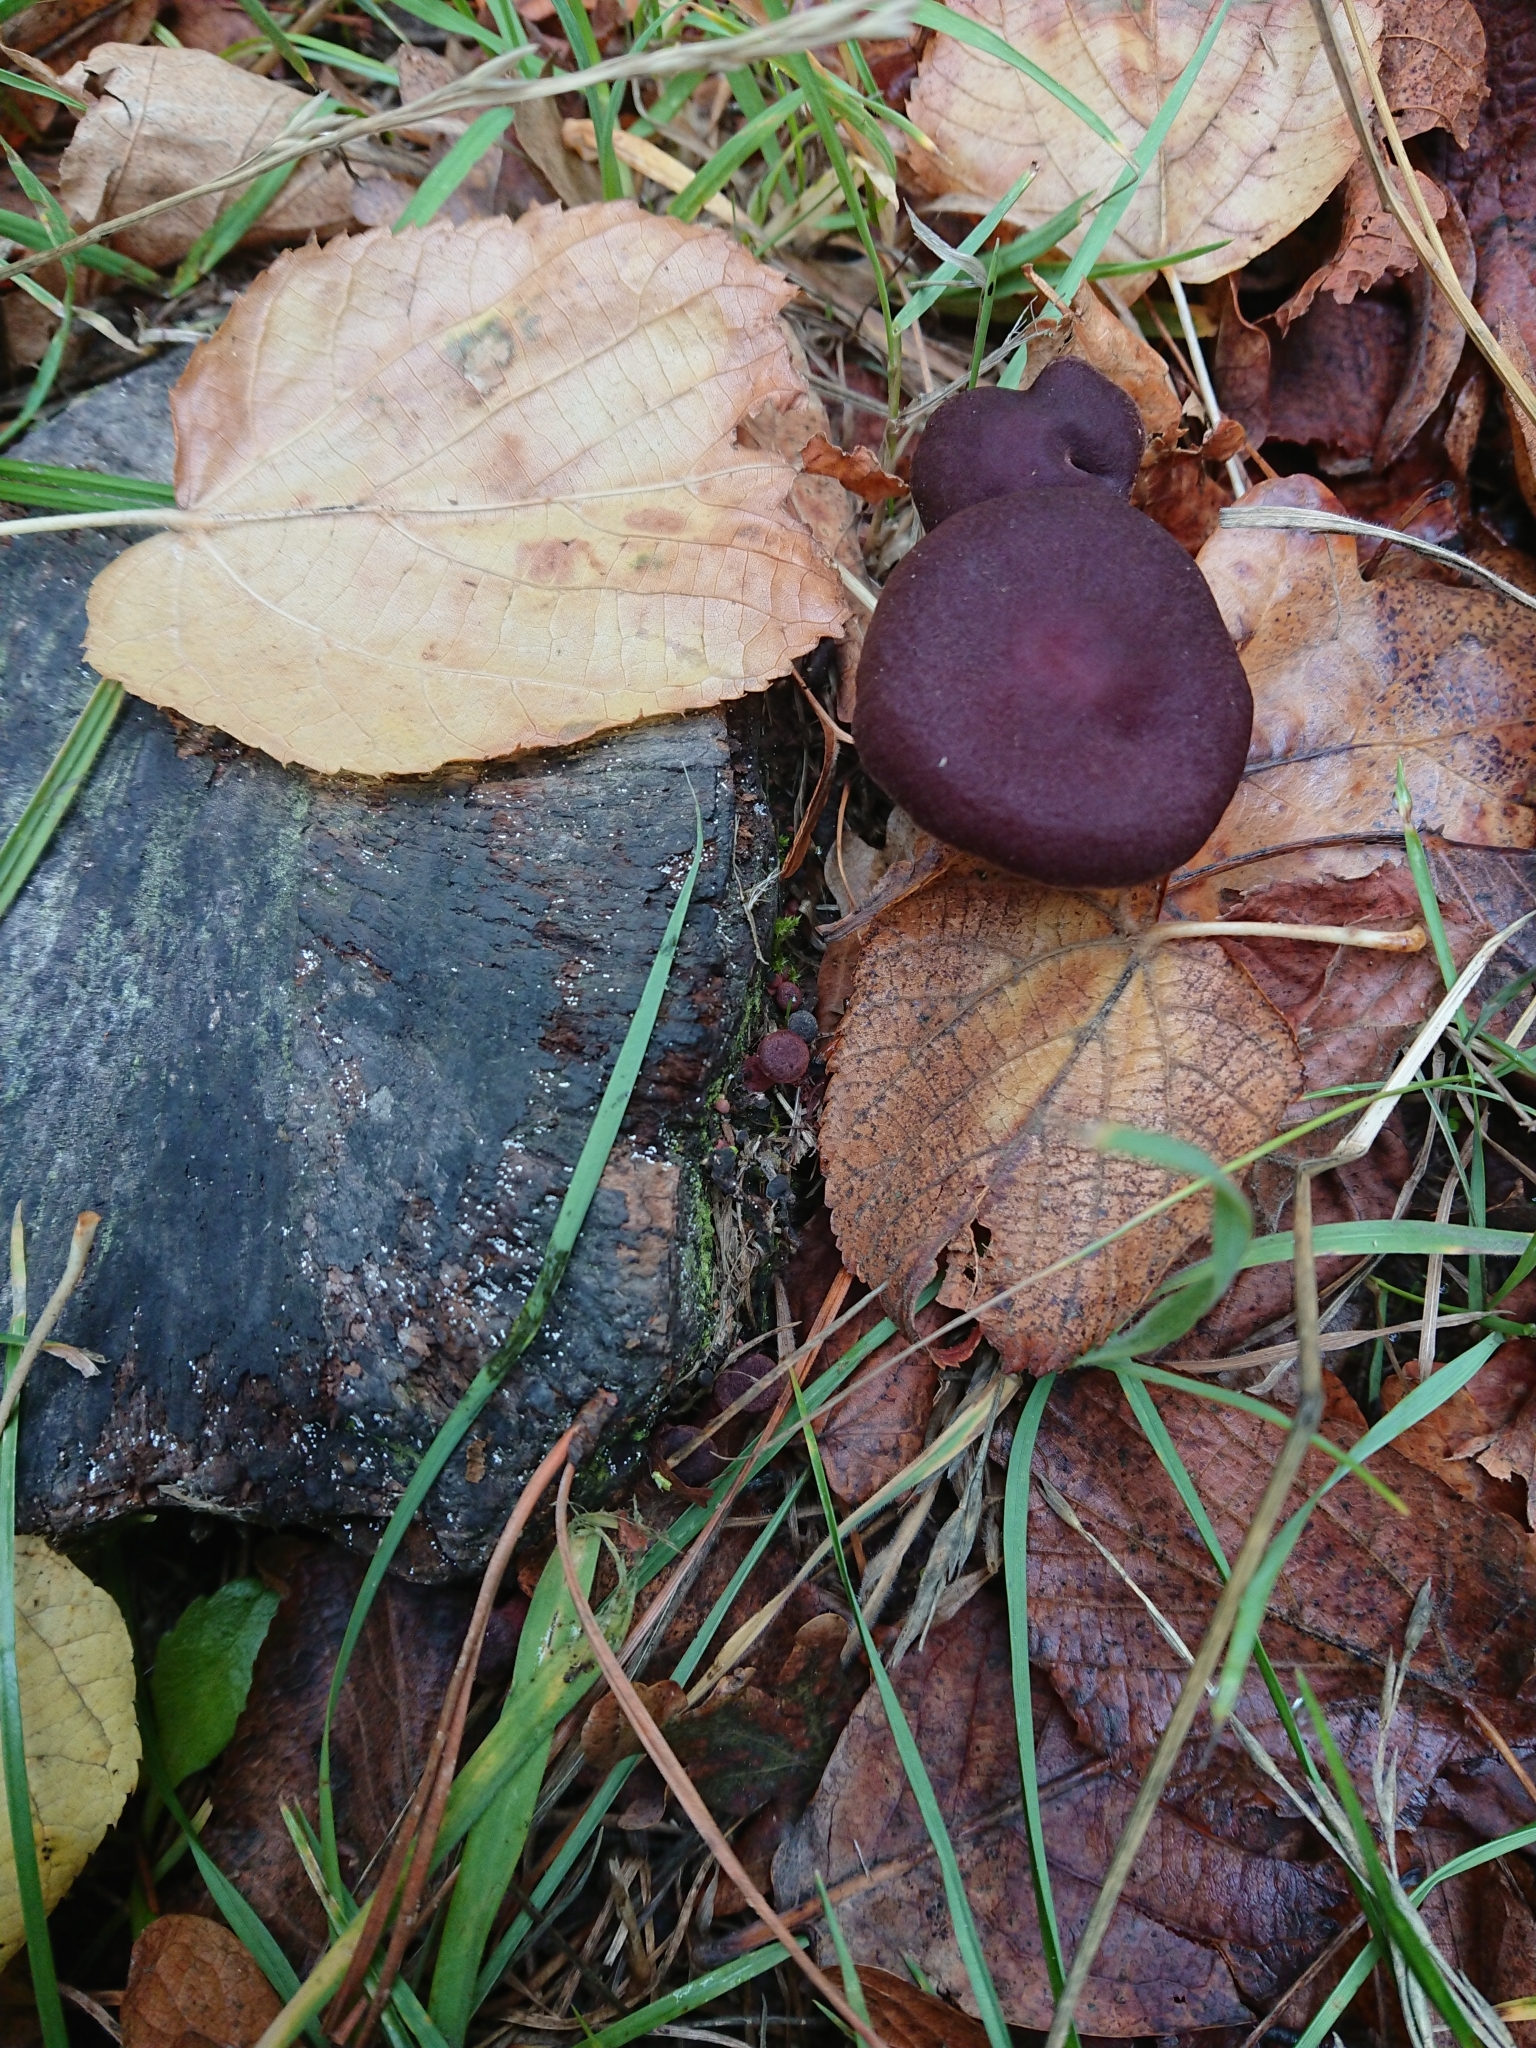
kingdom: Fungi
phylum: Basidiomycota
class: Agaricomycetes
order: Agaricales
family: Tubariaceae
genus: Tubaria
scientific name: Tubaria rufofulva
